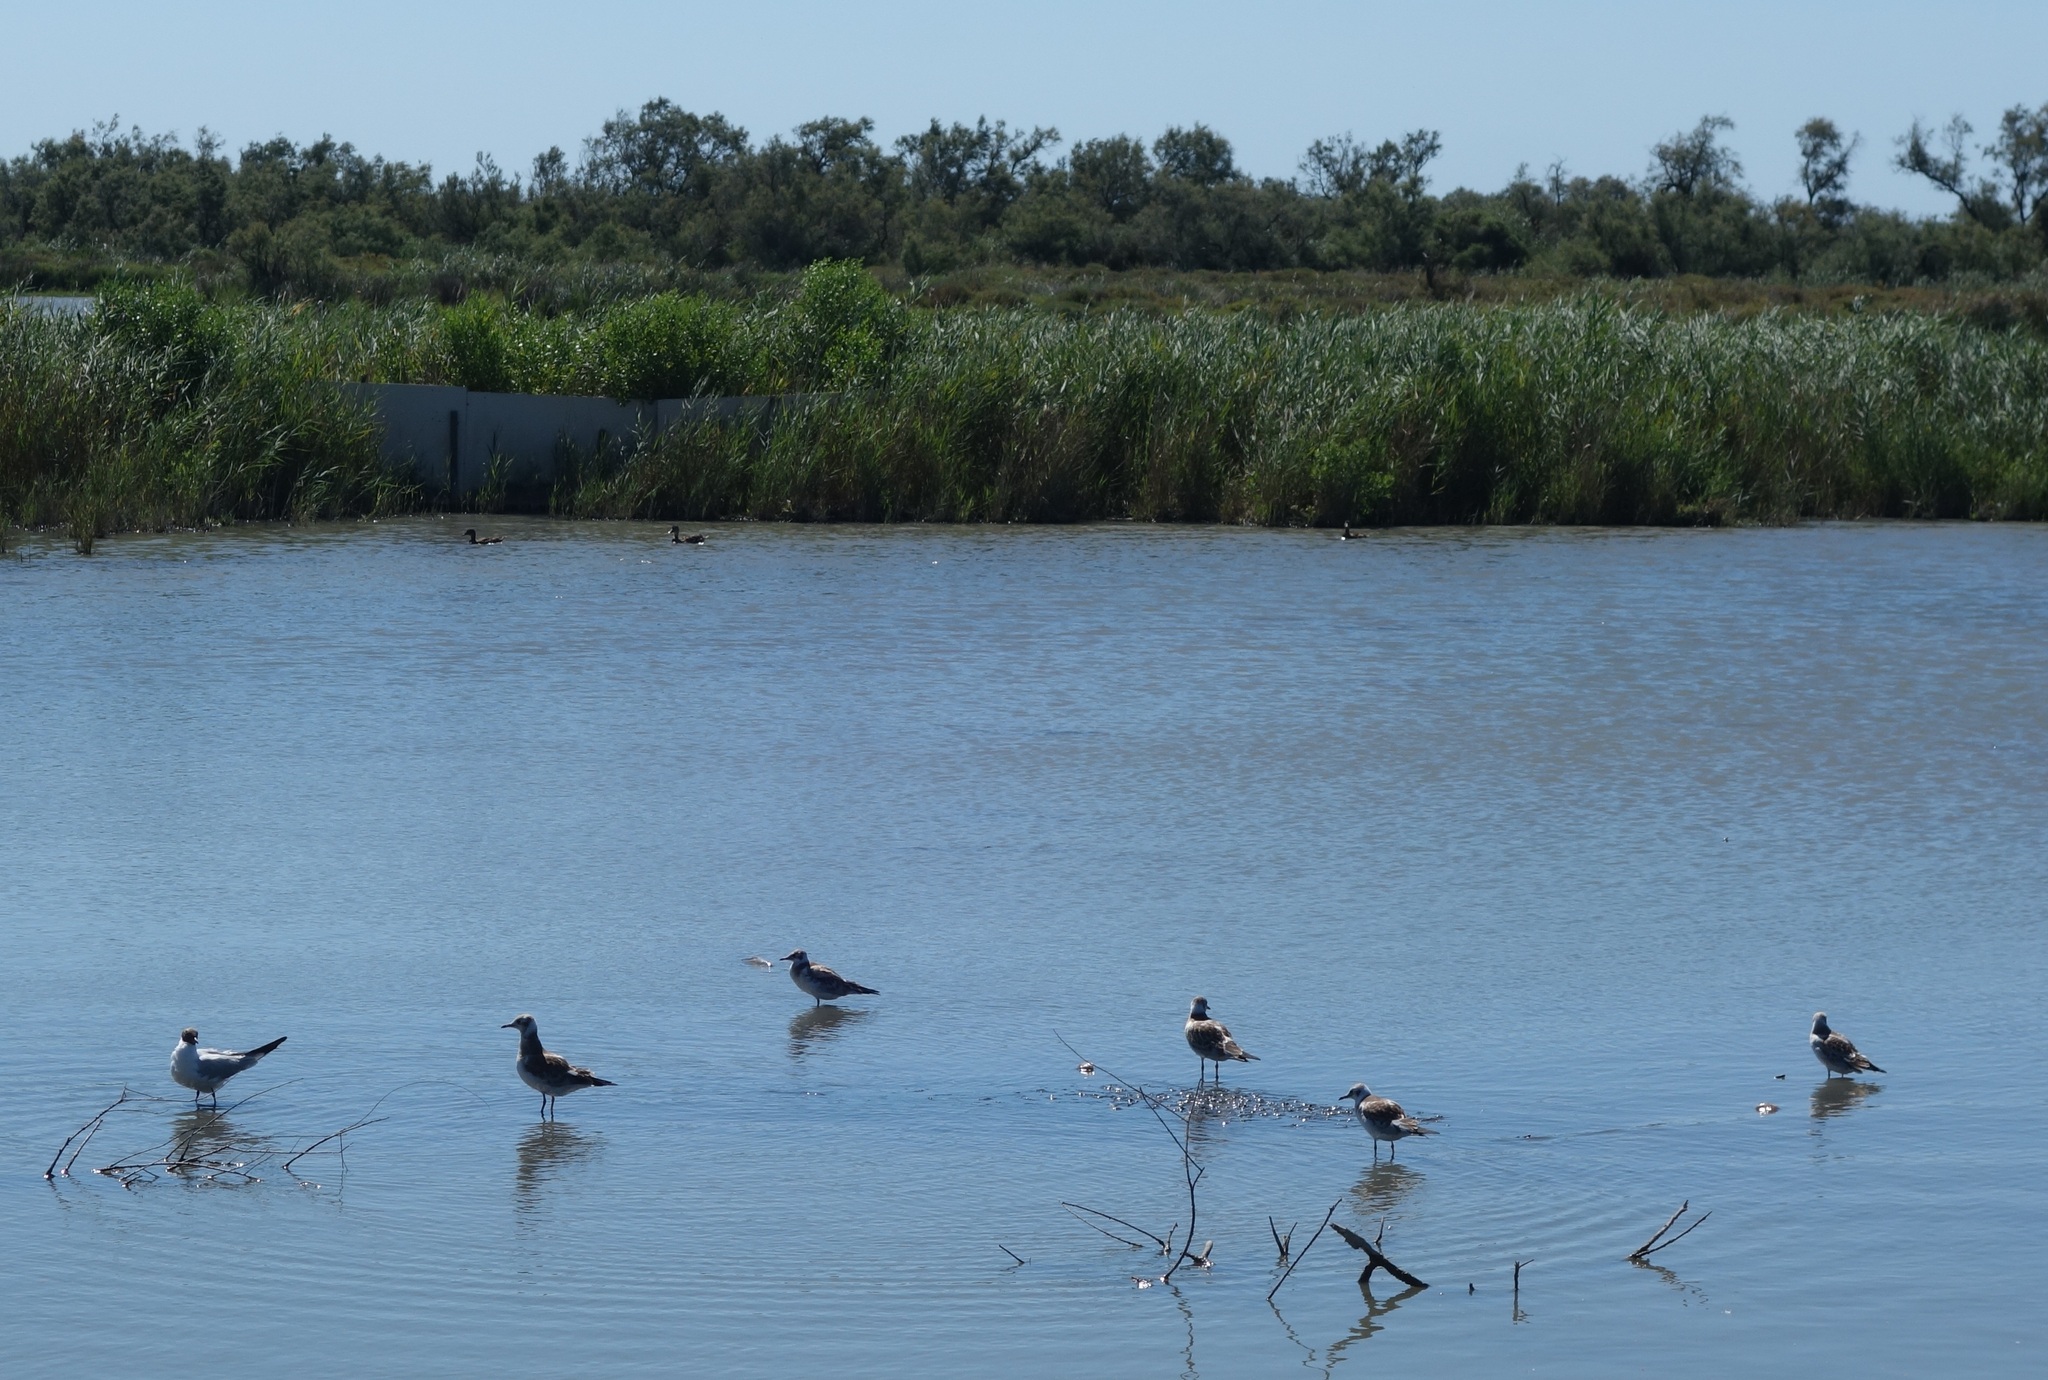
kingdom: Animalia
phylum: Chordata
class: Aves
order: Charadriiformes
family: Laridae
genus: Chroicocephalus
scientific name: Chroicocephalus ridibundus
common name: Black-headed gull
